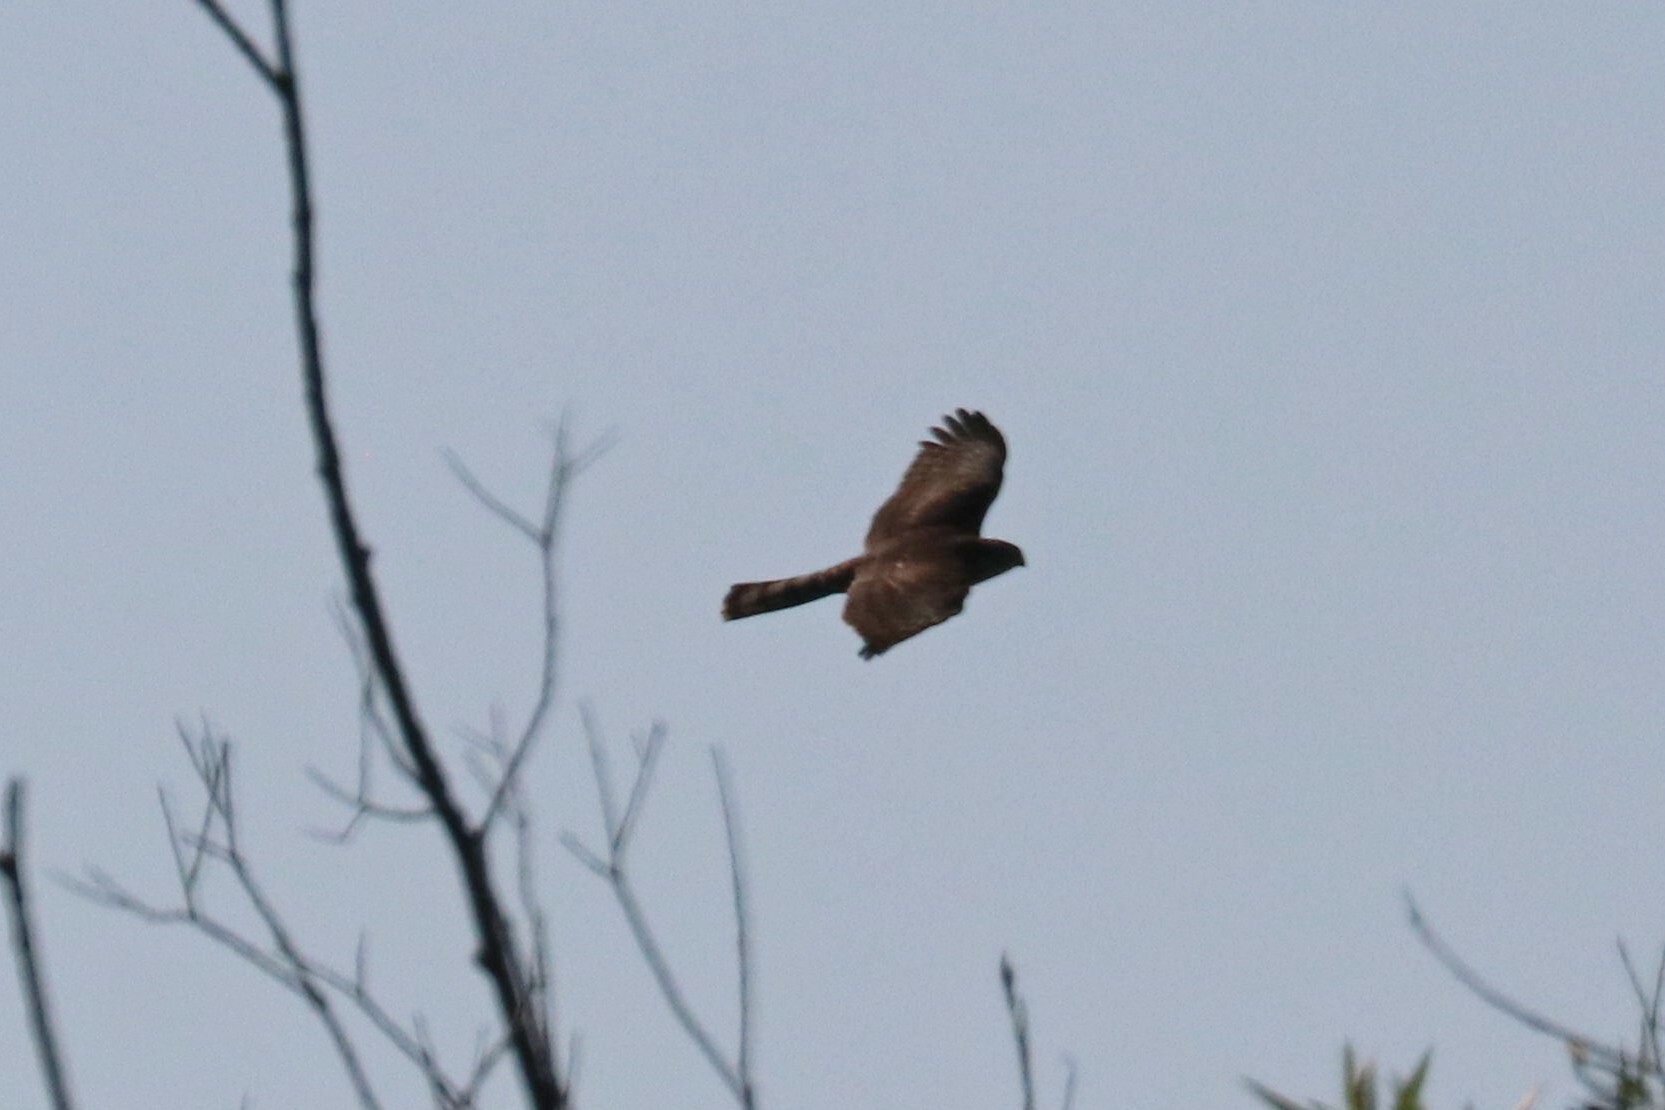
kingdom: Animalia
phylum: Chordata
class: Aves
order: Accipitriformes
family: Accipitridae
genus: Accipiter
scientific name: Accipiter nisus
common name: Eurasian sparrowhawk
